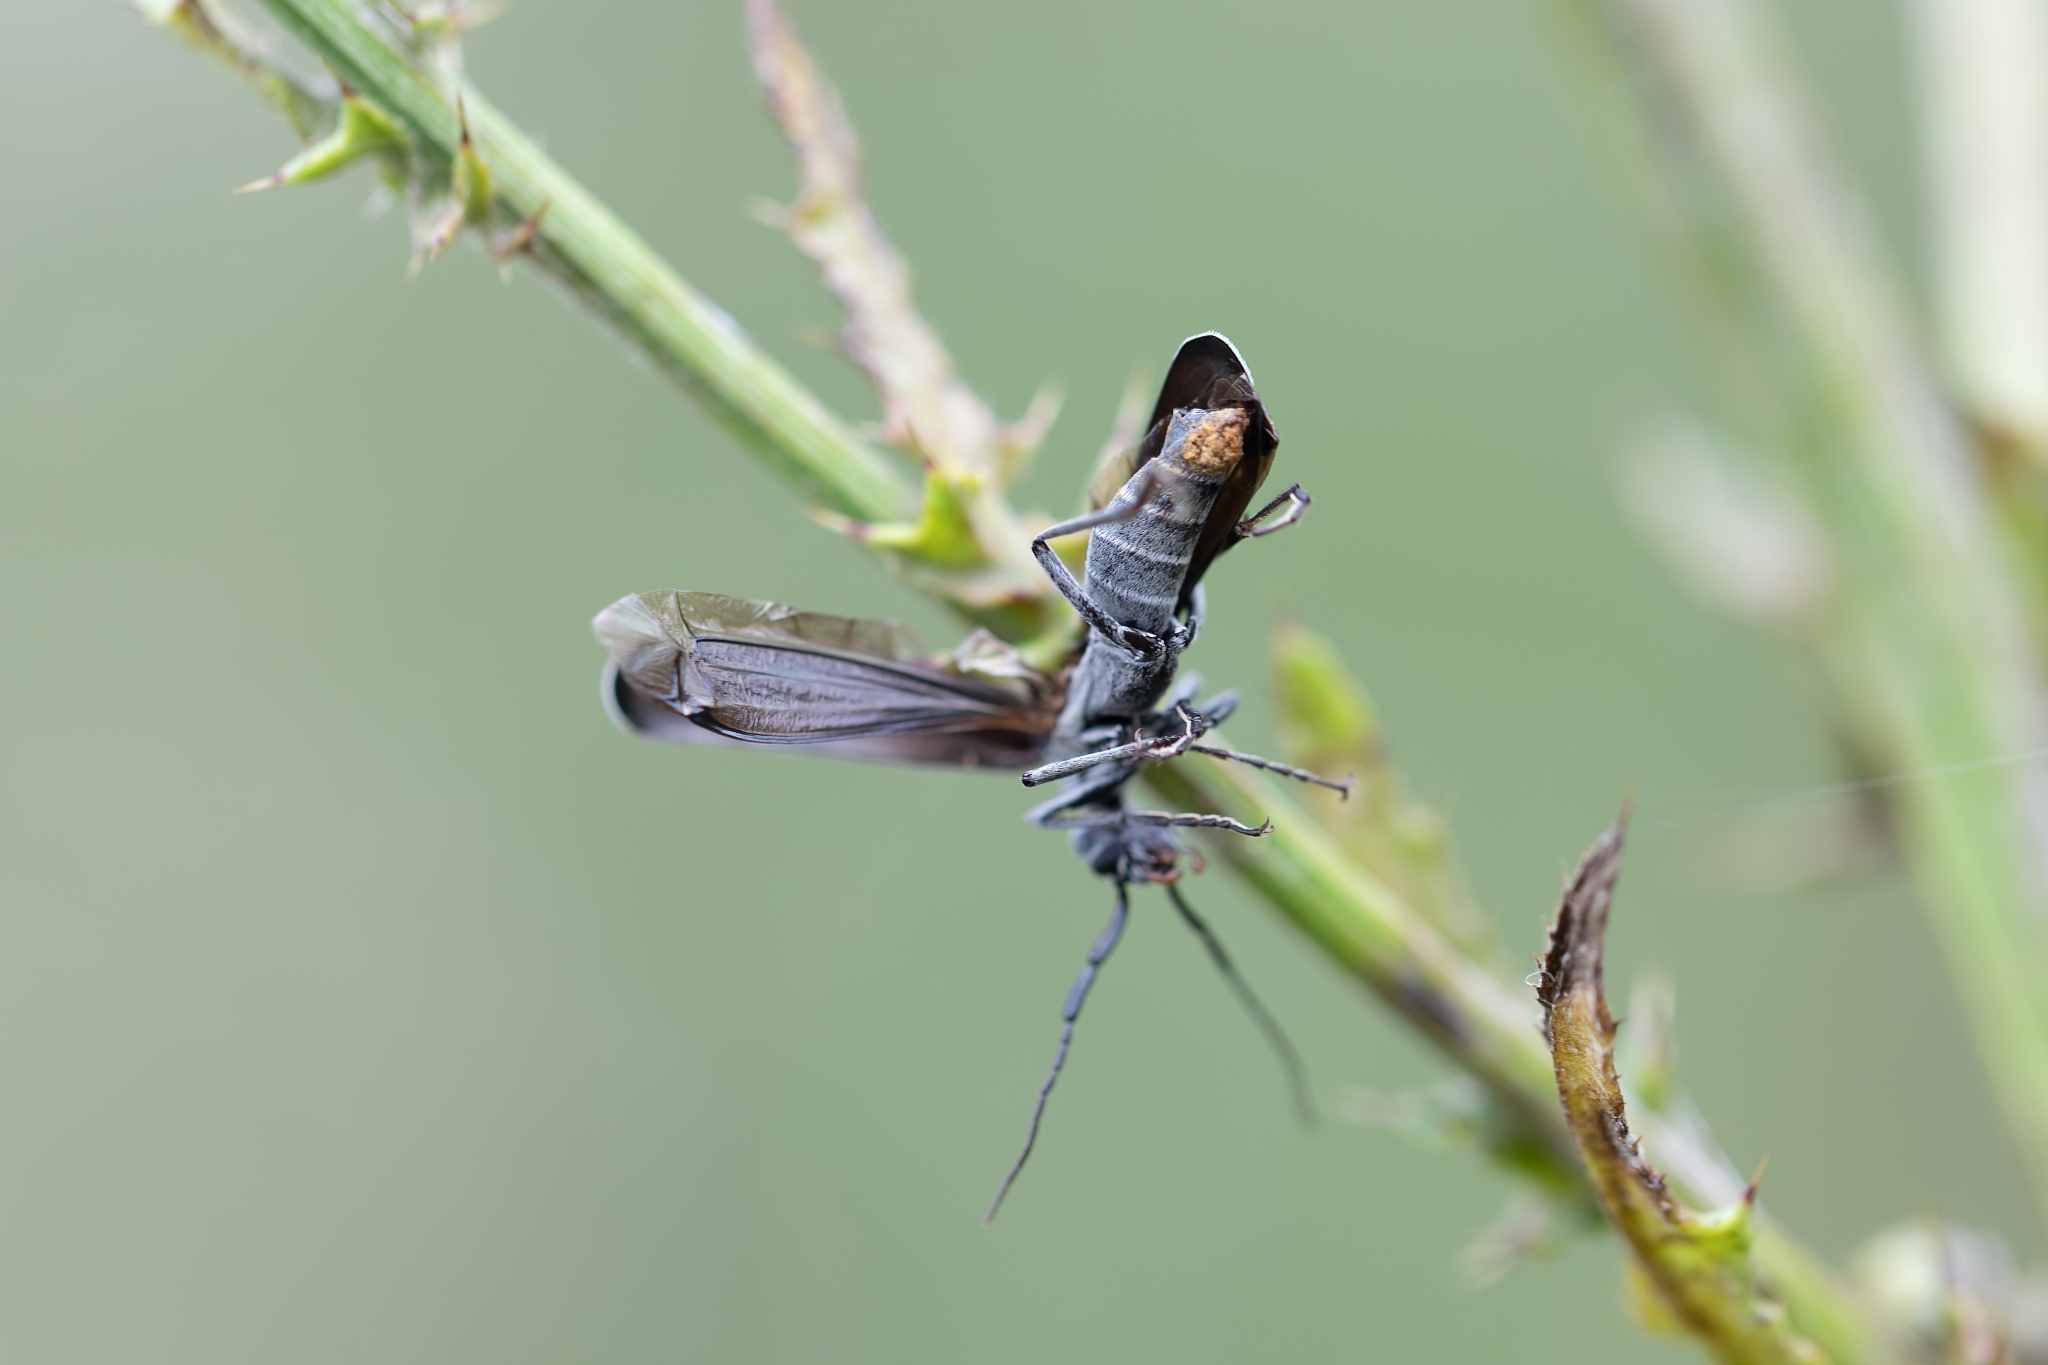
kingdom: Animalia
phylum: Arthropoda
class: Insecta
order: Coleoptera
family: Meloidae
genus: Epicauta
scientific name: Epicauta tenuis
